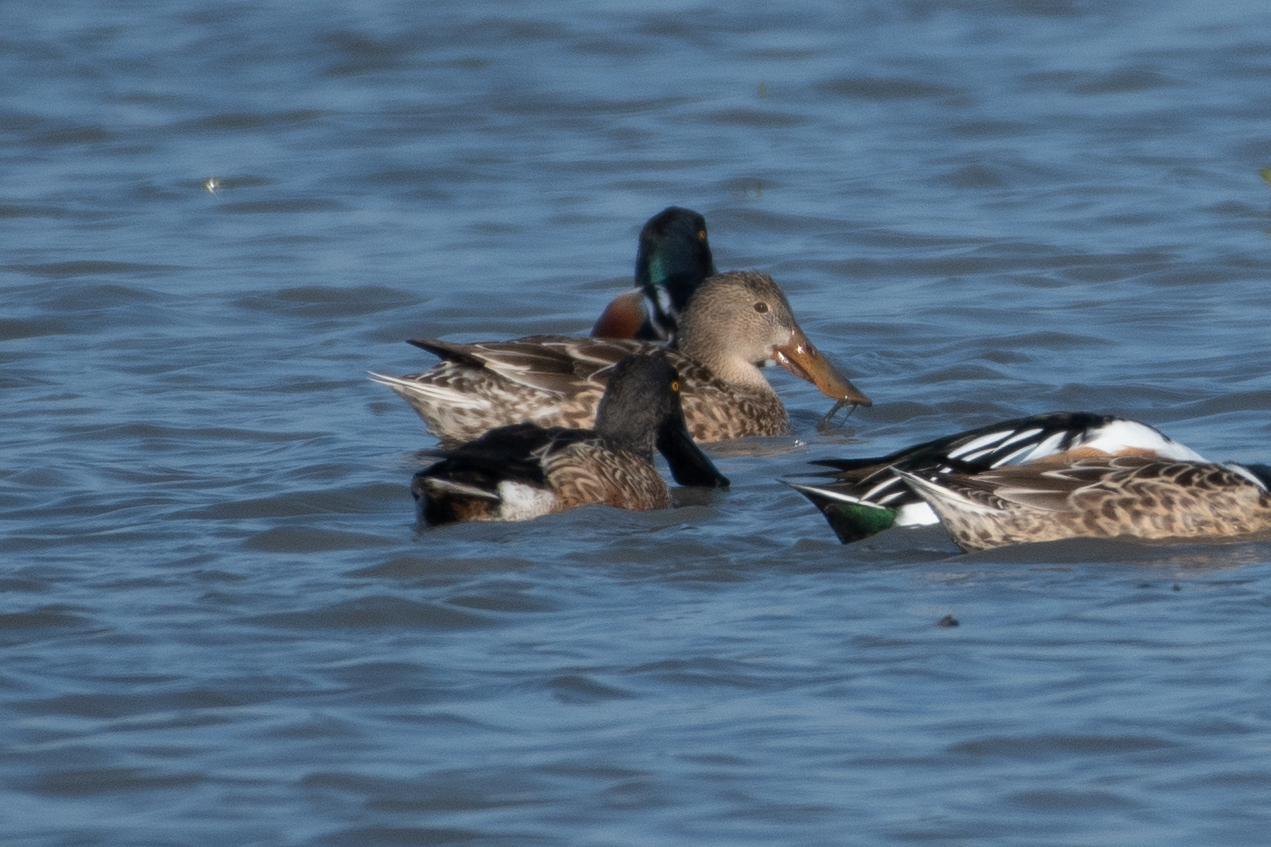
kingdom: Animalia
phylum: Chordata
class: Aves
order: Anseriformes
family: Anatidae
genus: Spatula
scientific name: Spatula clypeata
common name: Northern shoveler
